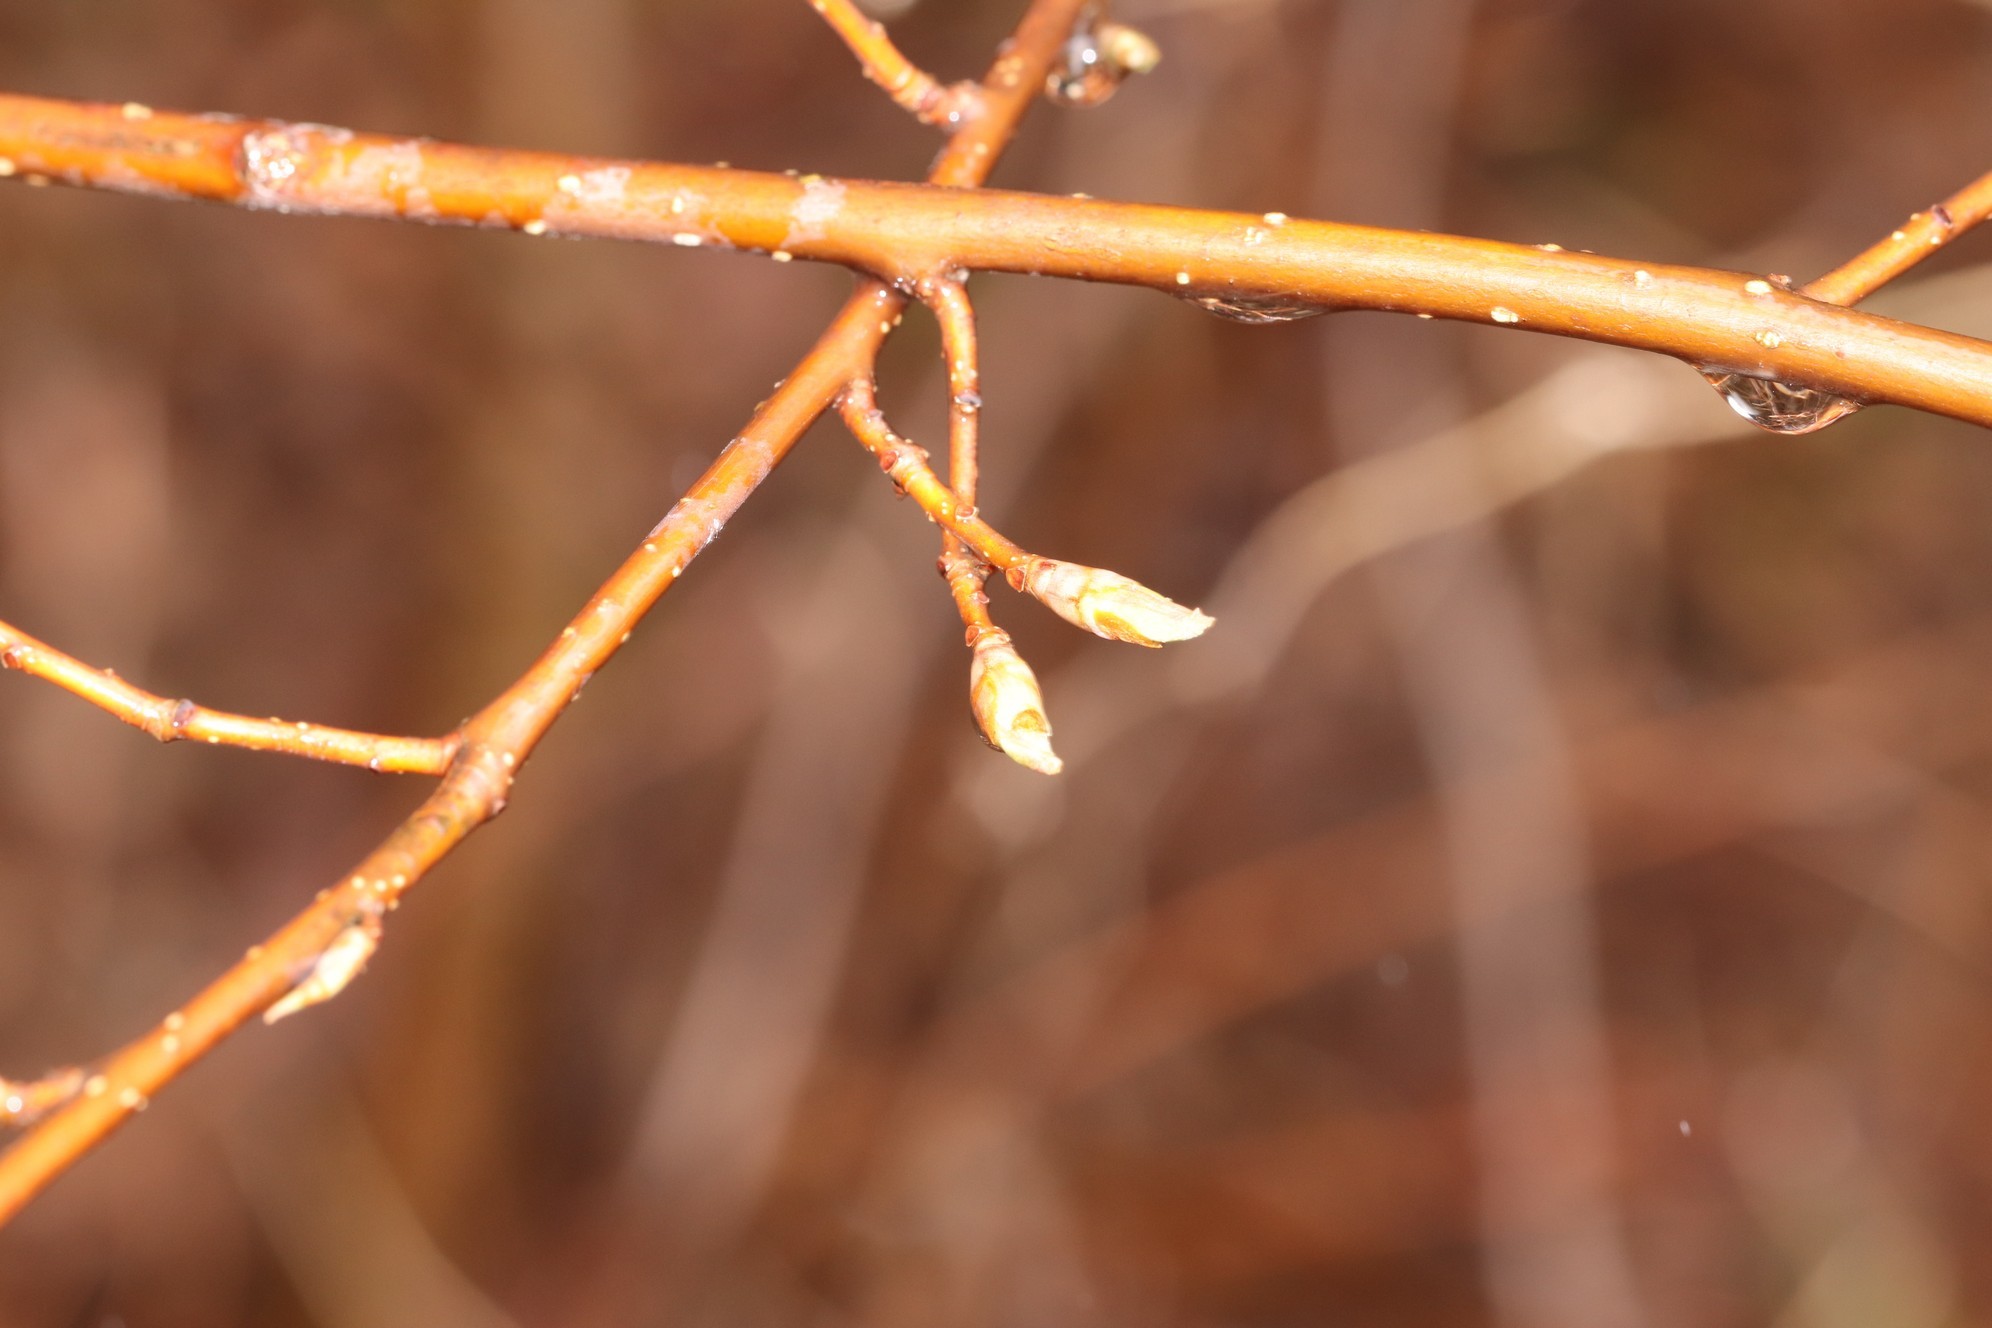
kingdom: Plantae
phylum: Tracheophyta
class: Magnoliopsida
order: Rosales
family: Rosaceae
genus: Prunus
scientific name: Prunus padus
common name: Bird cherry
